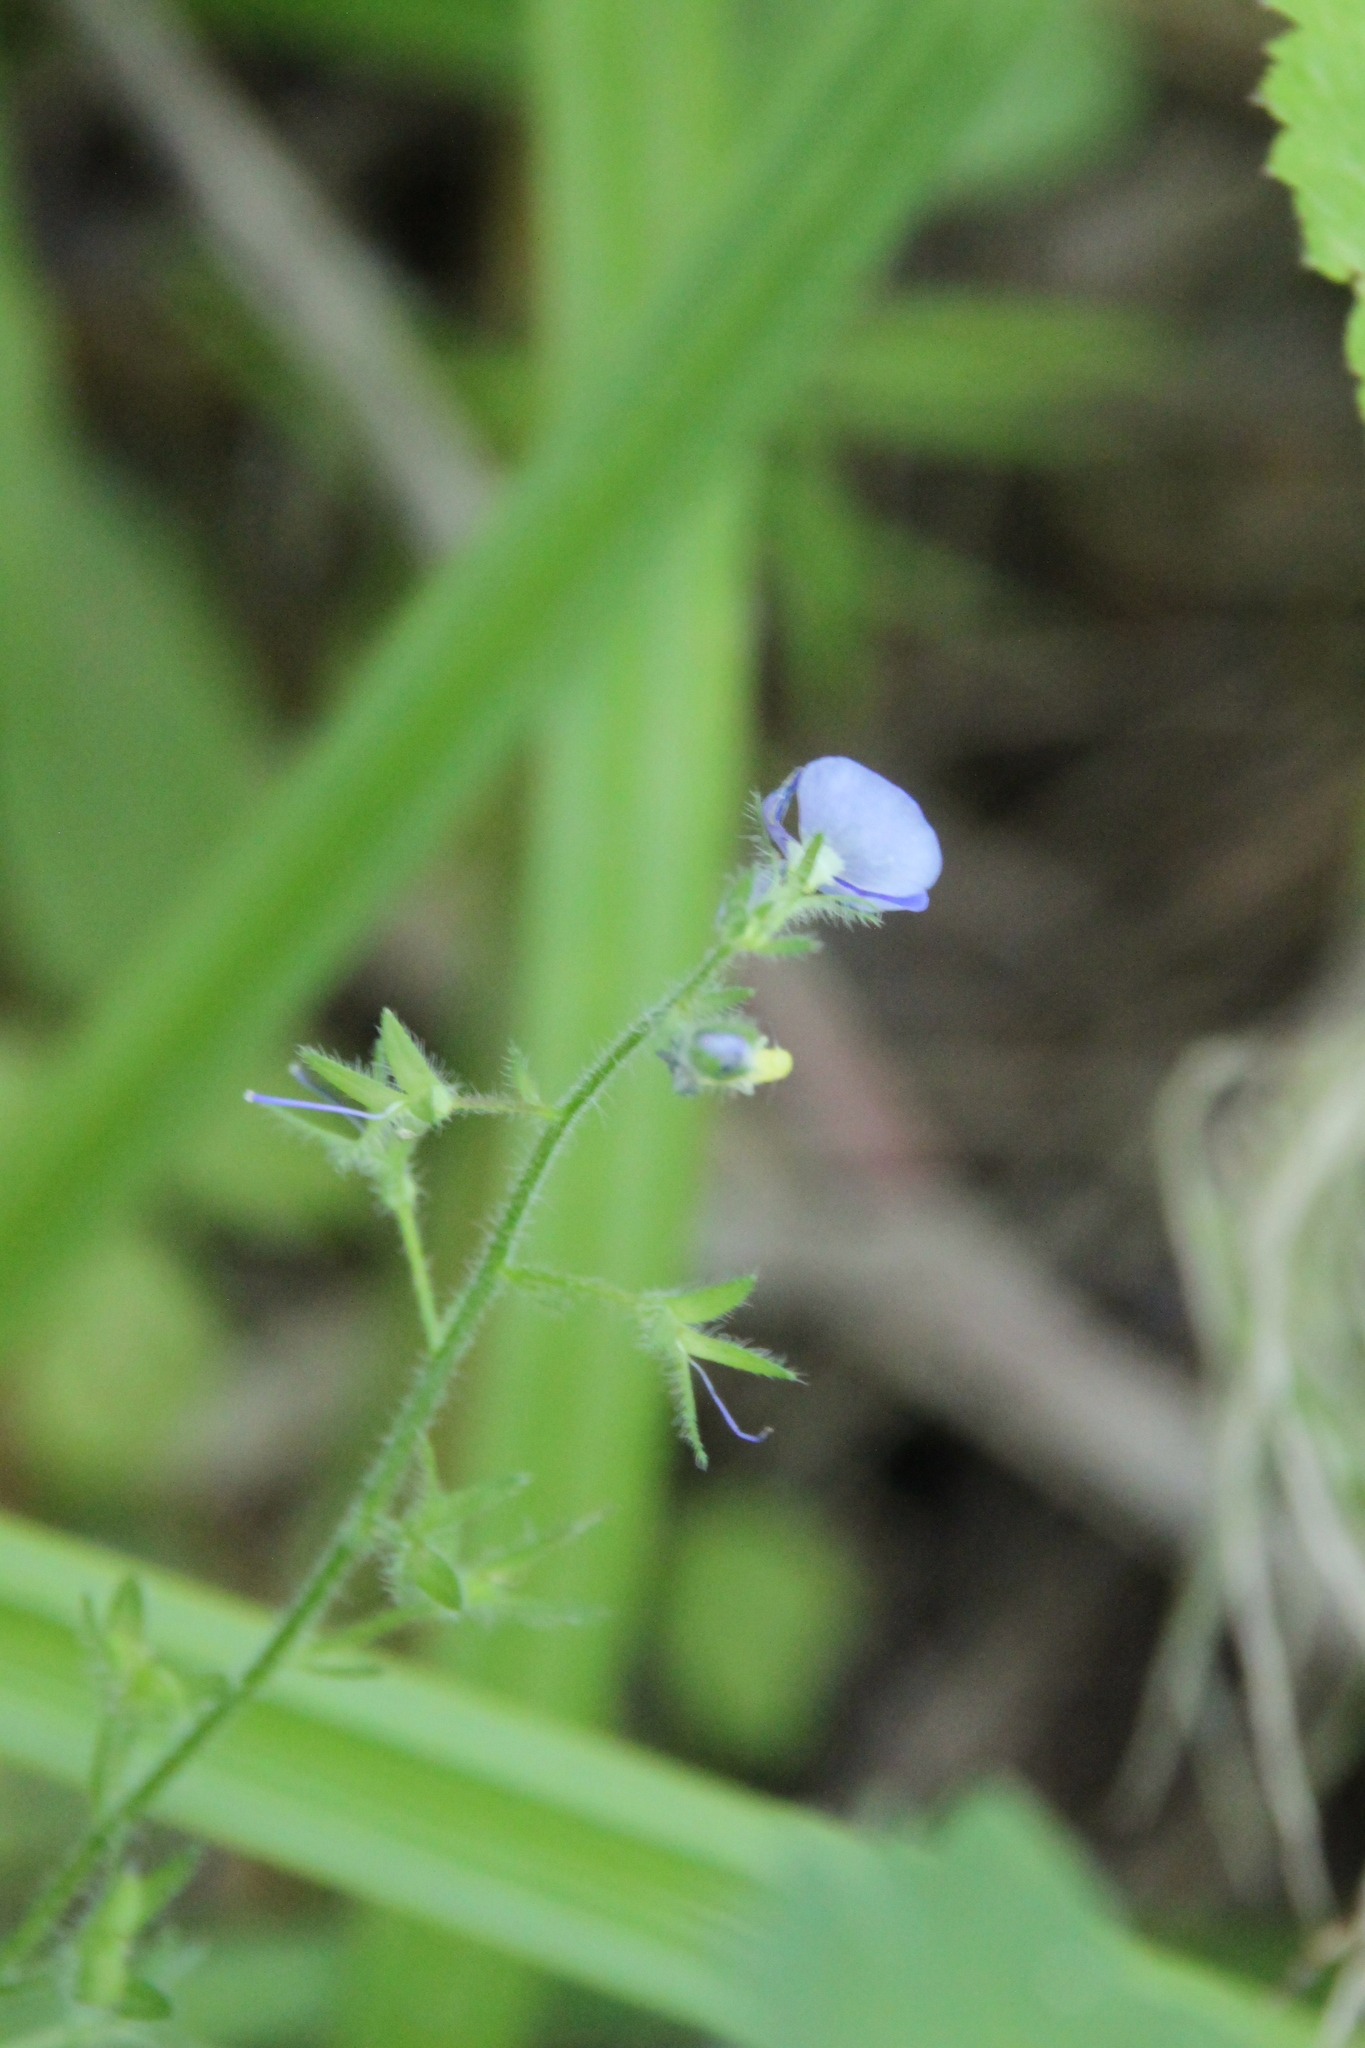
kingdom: Plantae
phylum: Tracheophyta
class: Magnoliopsida
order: Lamiales
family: Plantaginaceae
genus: Veronica
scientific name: Veronica chamaedrys
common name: Germander speedwell
